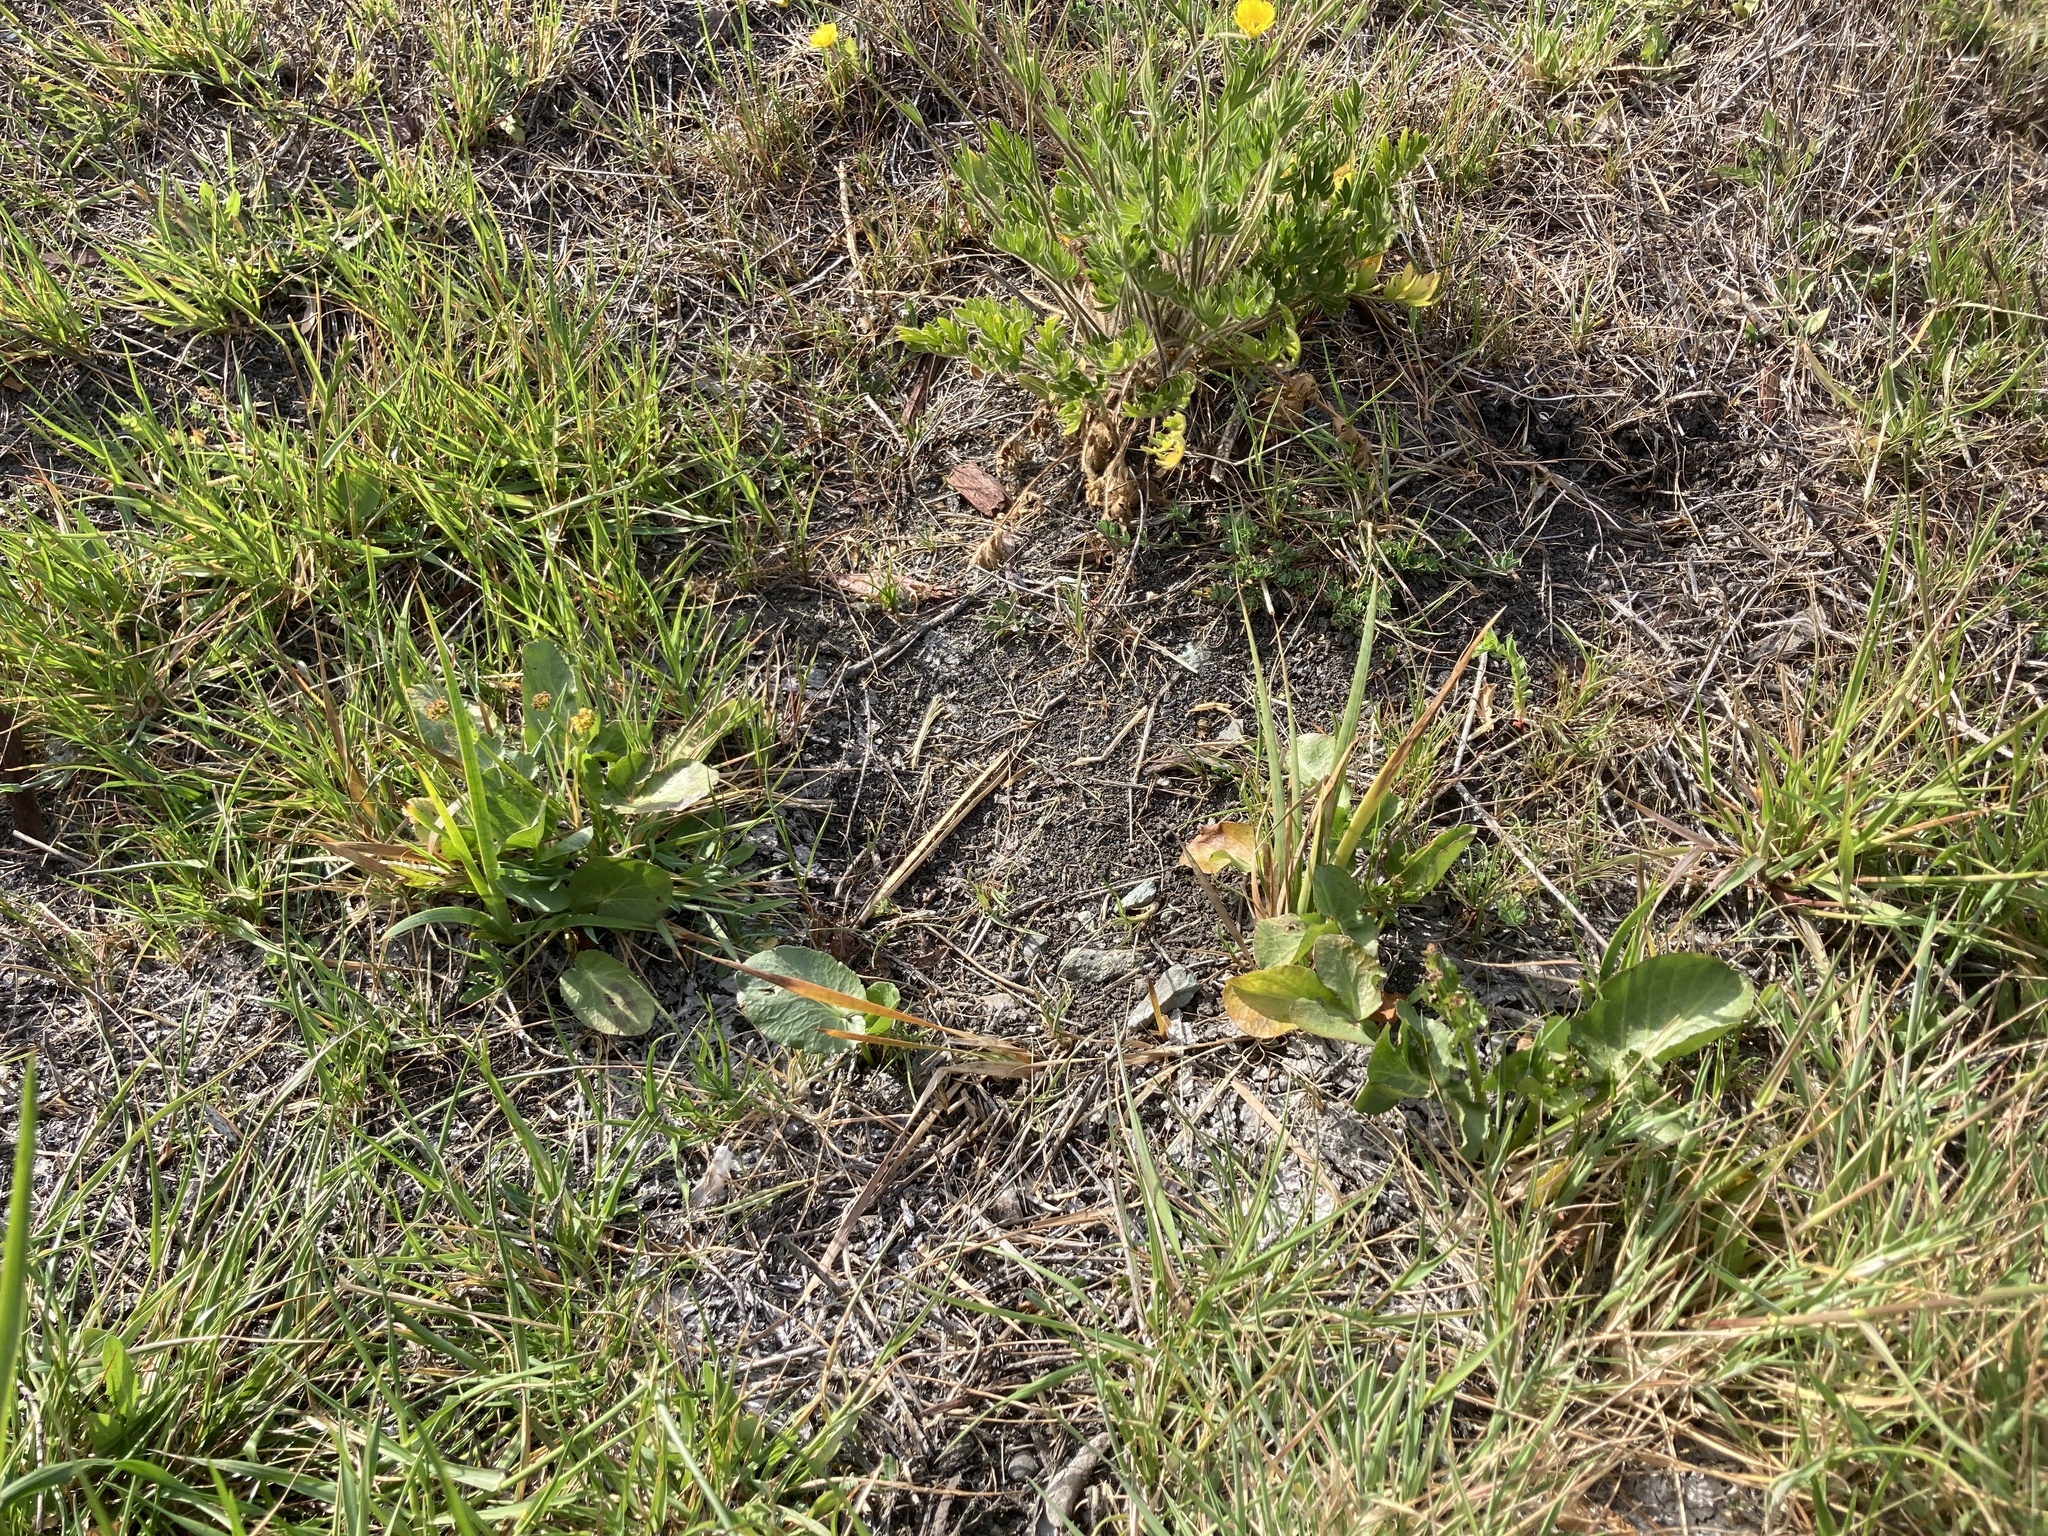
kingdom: Plantae
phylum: Tracheophyta
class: Magnoliopsida
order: Apiales
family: Apiaceae
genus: Sanicula
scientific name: Sanicula maritima
